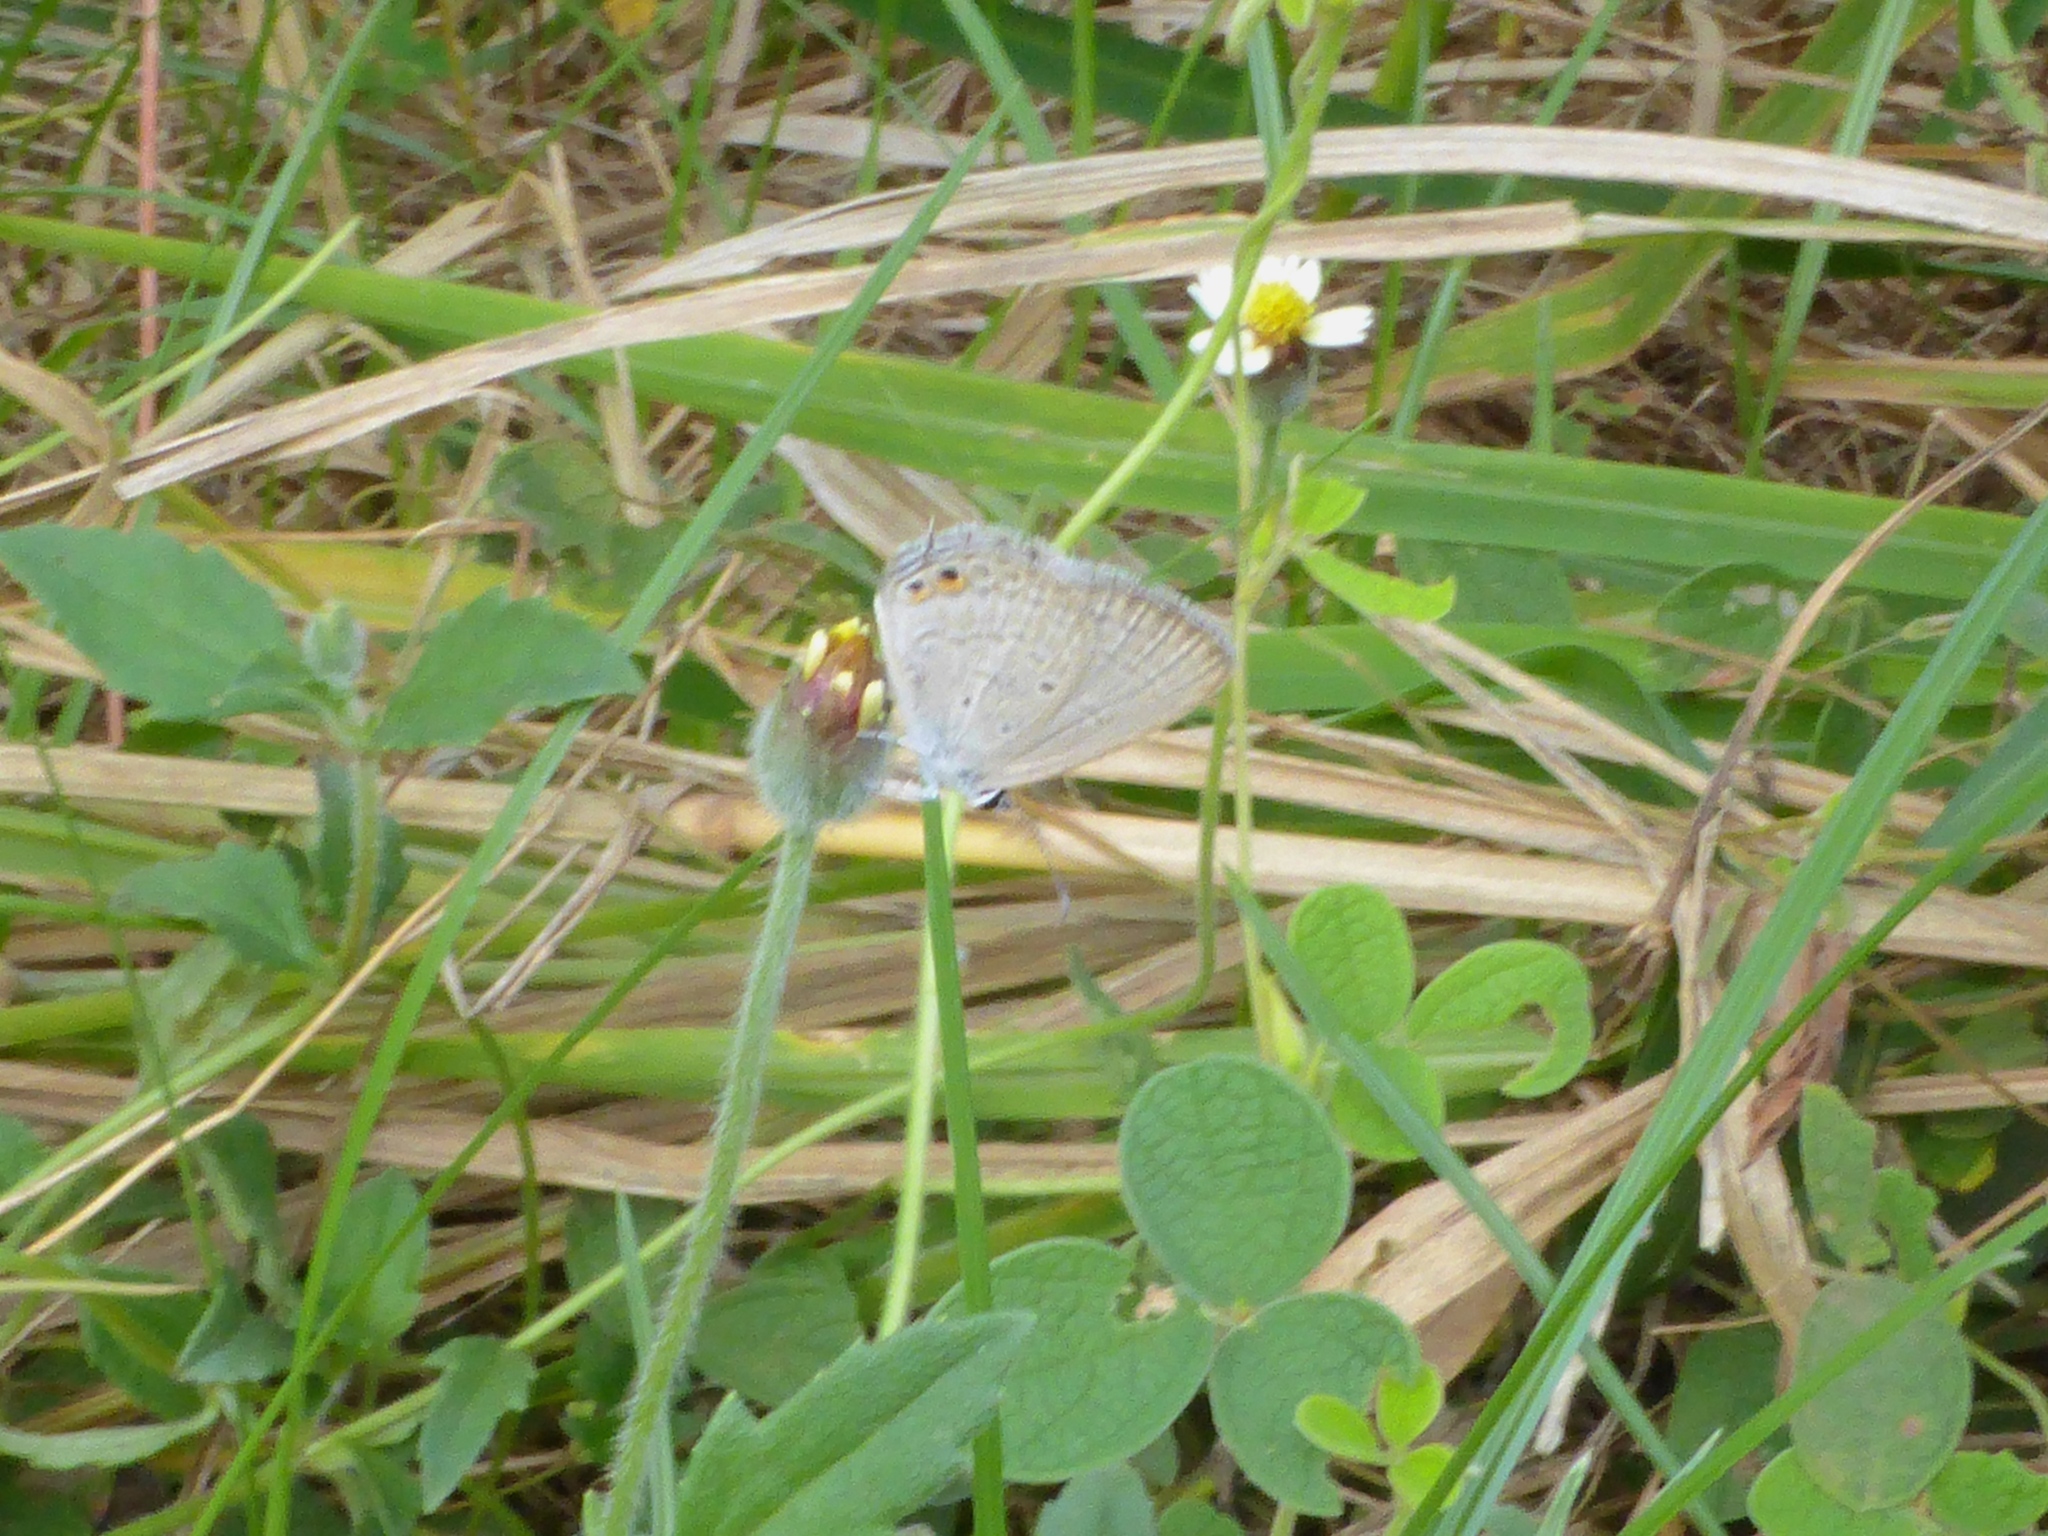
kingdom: Animalia
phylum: Arthropoda
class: Insecta
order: Lepidoptera
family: Lycaenidae
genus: Euchrysops
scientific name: Euchrysops cnejus
